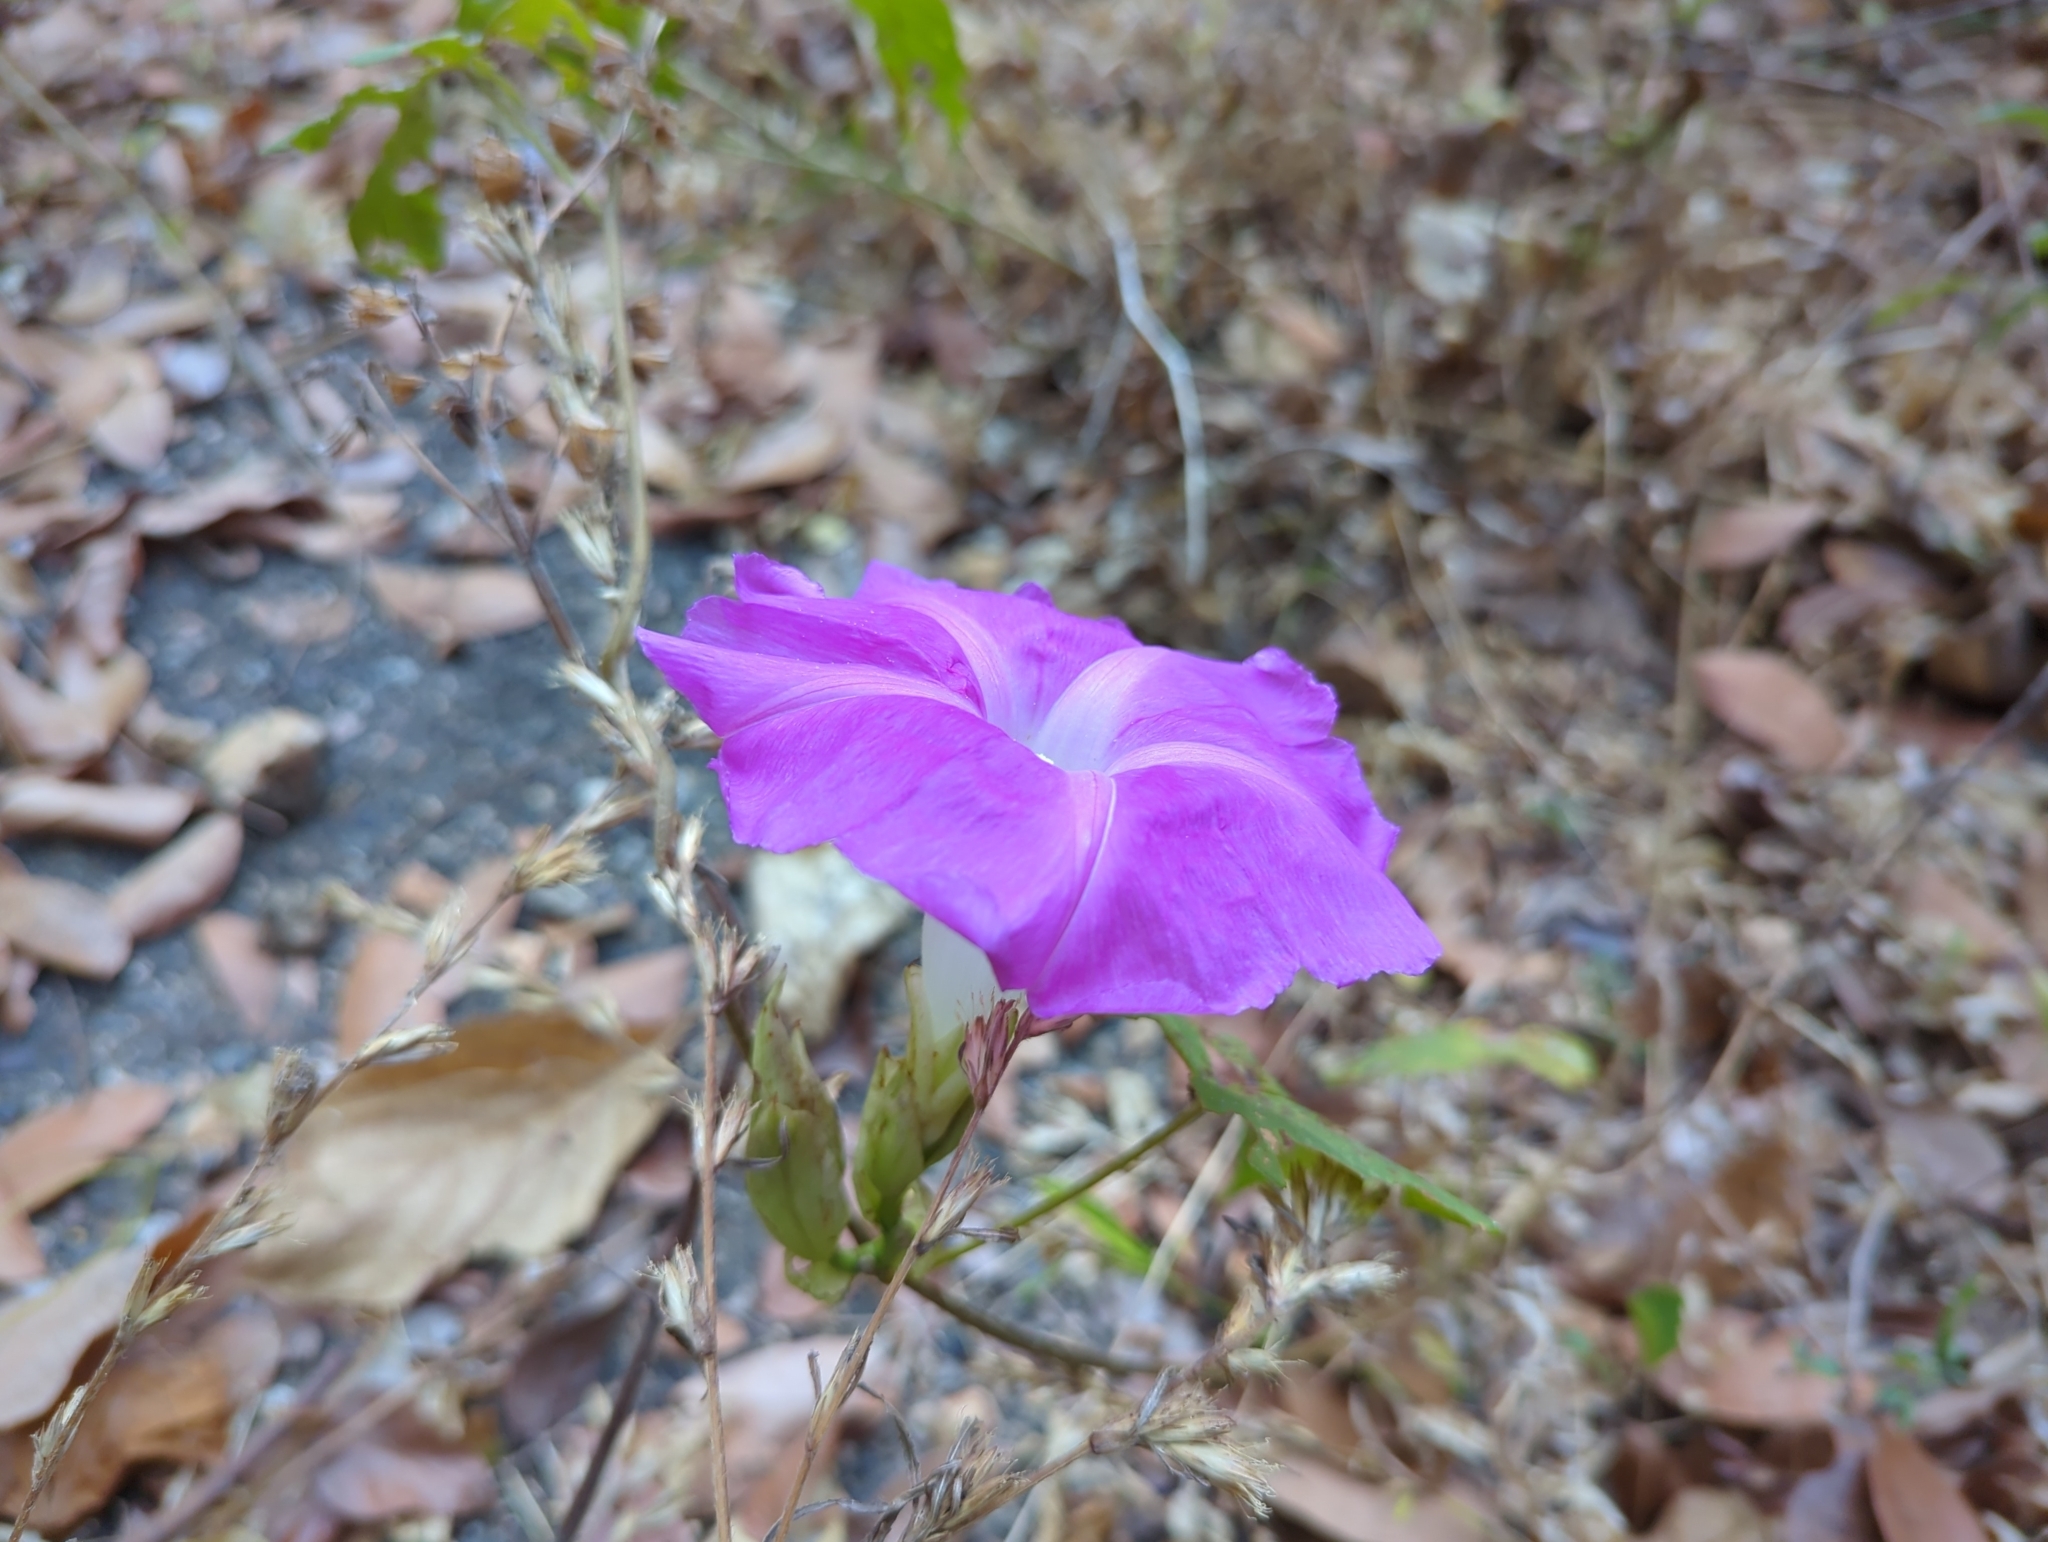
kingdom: Plantae
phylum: Tracheophyta
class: Magnoliopsida
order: Solanales
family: Convolvulaceae
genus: Ipomoea
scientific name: Ipomoea invicta
